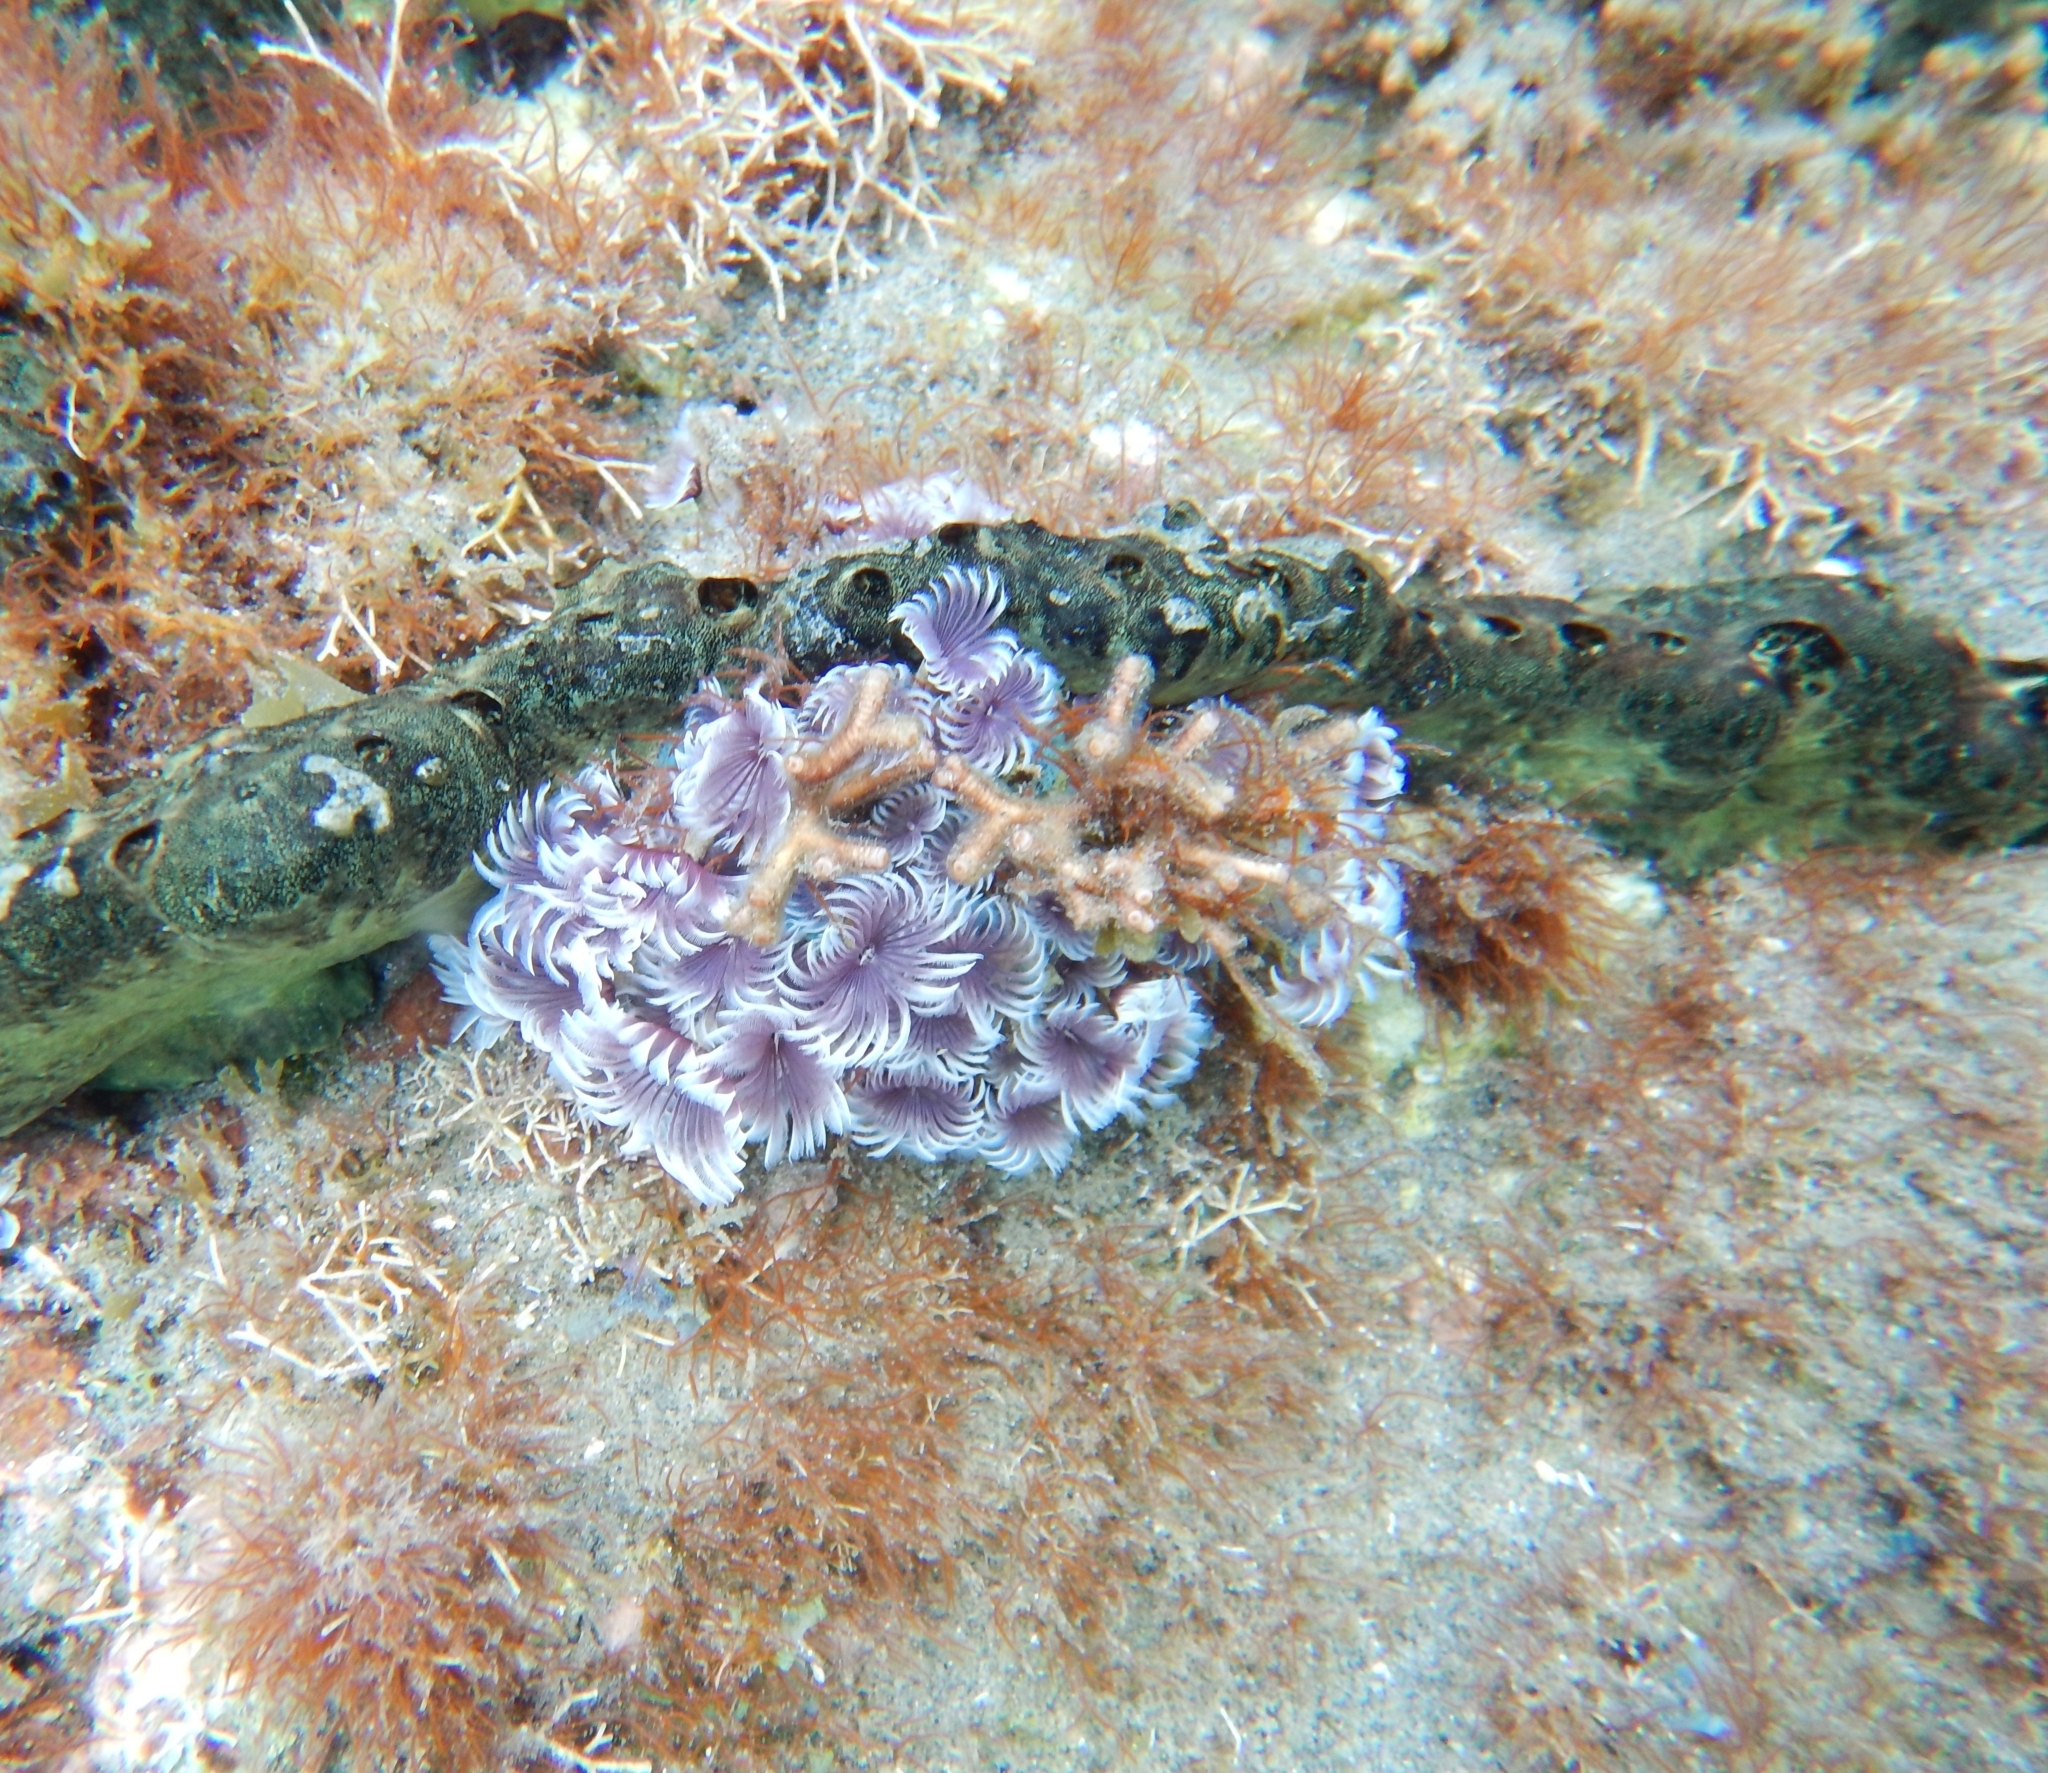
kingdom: Animalia
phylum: Annelida
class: Polychaeta
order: Sabellida
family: Sabellidae
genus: Bispira
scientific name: Bispira brunnea
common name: Social feather duster
